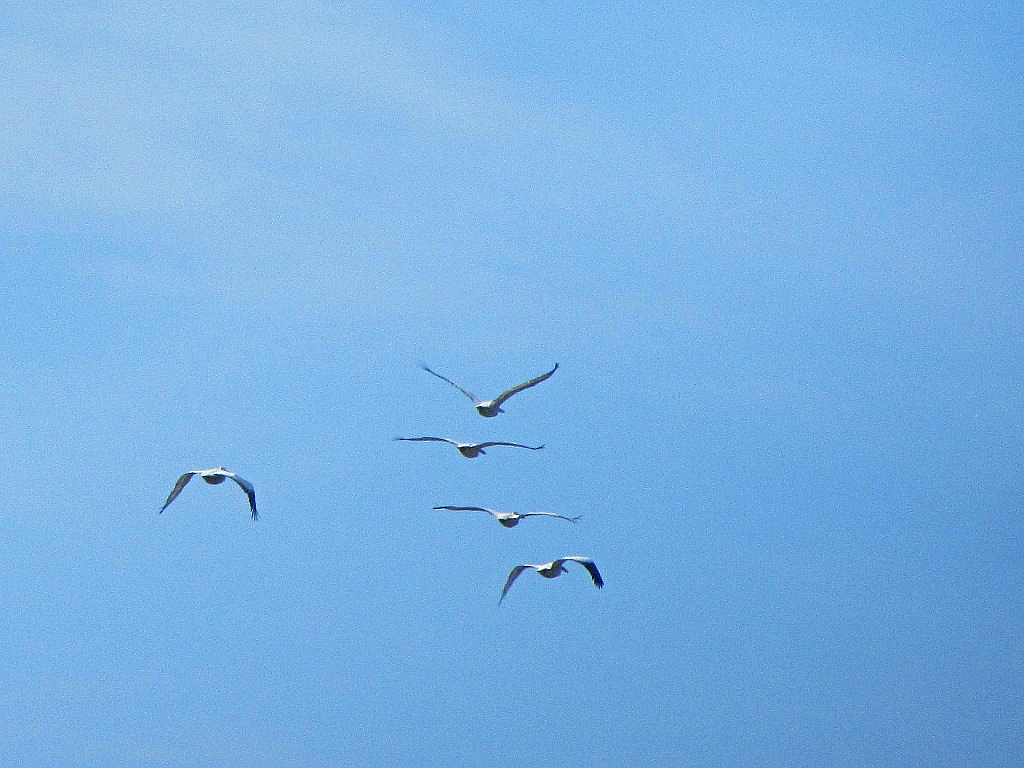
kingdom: Animalia
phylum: Chordata
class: Aves
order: Pelecaniformes
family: Pelecanidae
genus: Pelecanus
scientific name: Pelecanus crispus
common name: Dalmatian pelican
